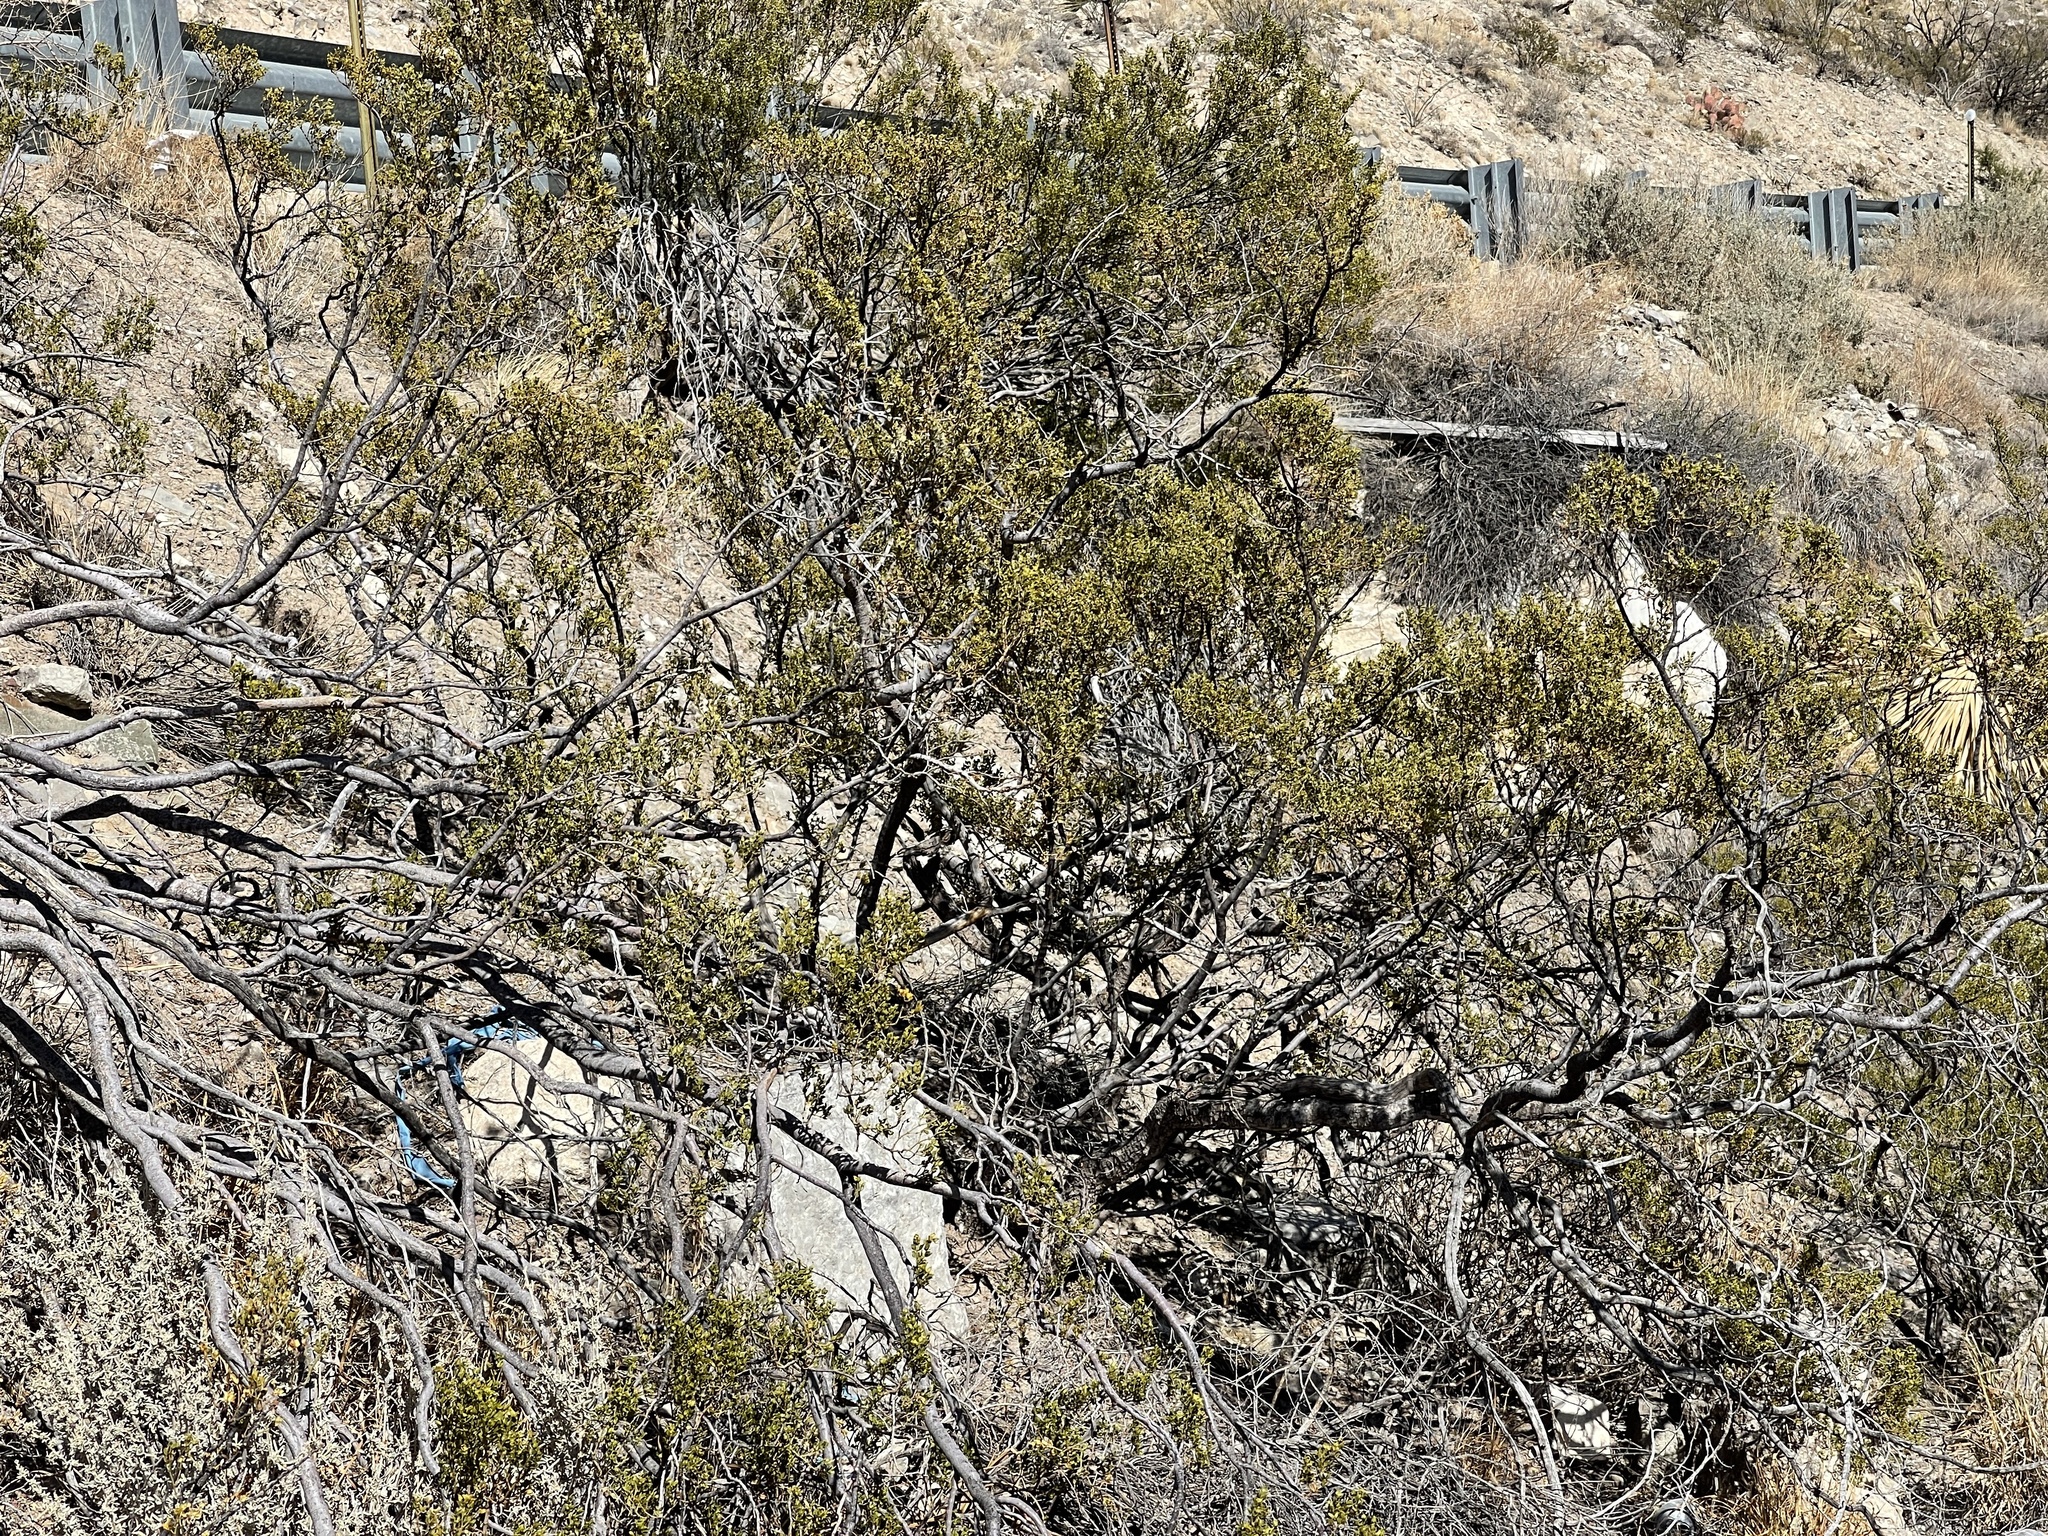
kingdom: Plantae
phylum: Tracheophyta
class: Magnoliopsida
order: Zygophyllales
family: Zygophyllaceae
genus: Larrea
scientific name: Larrea tridentata
